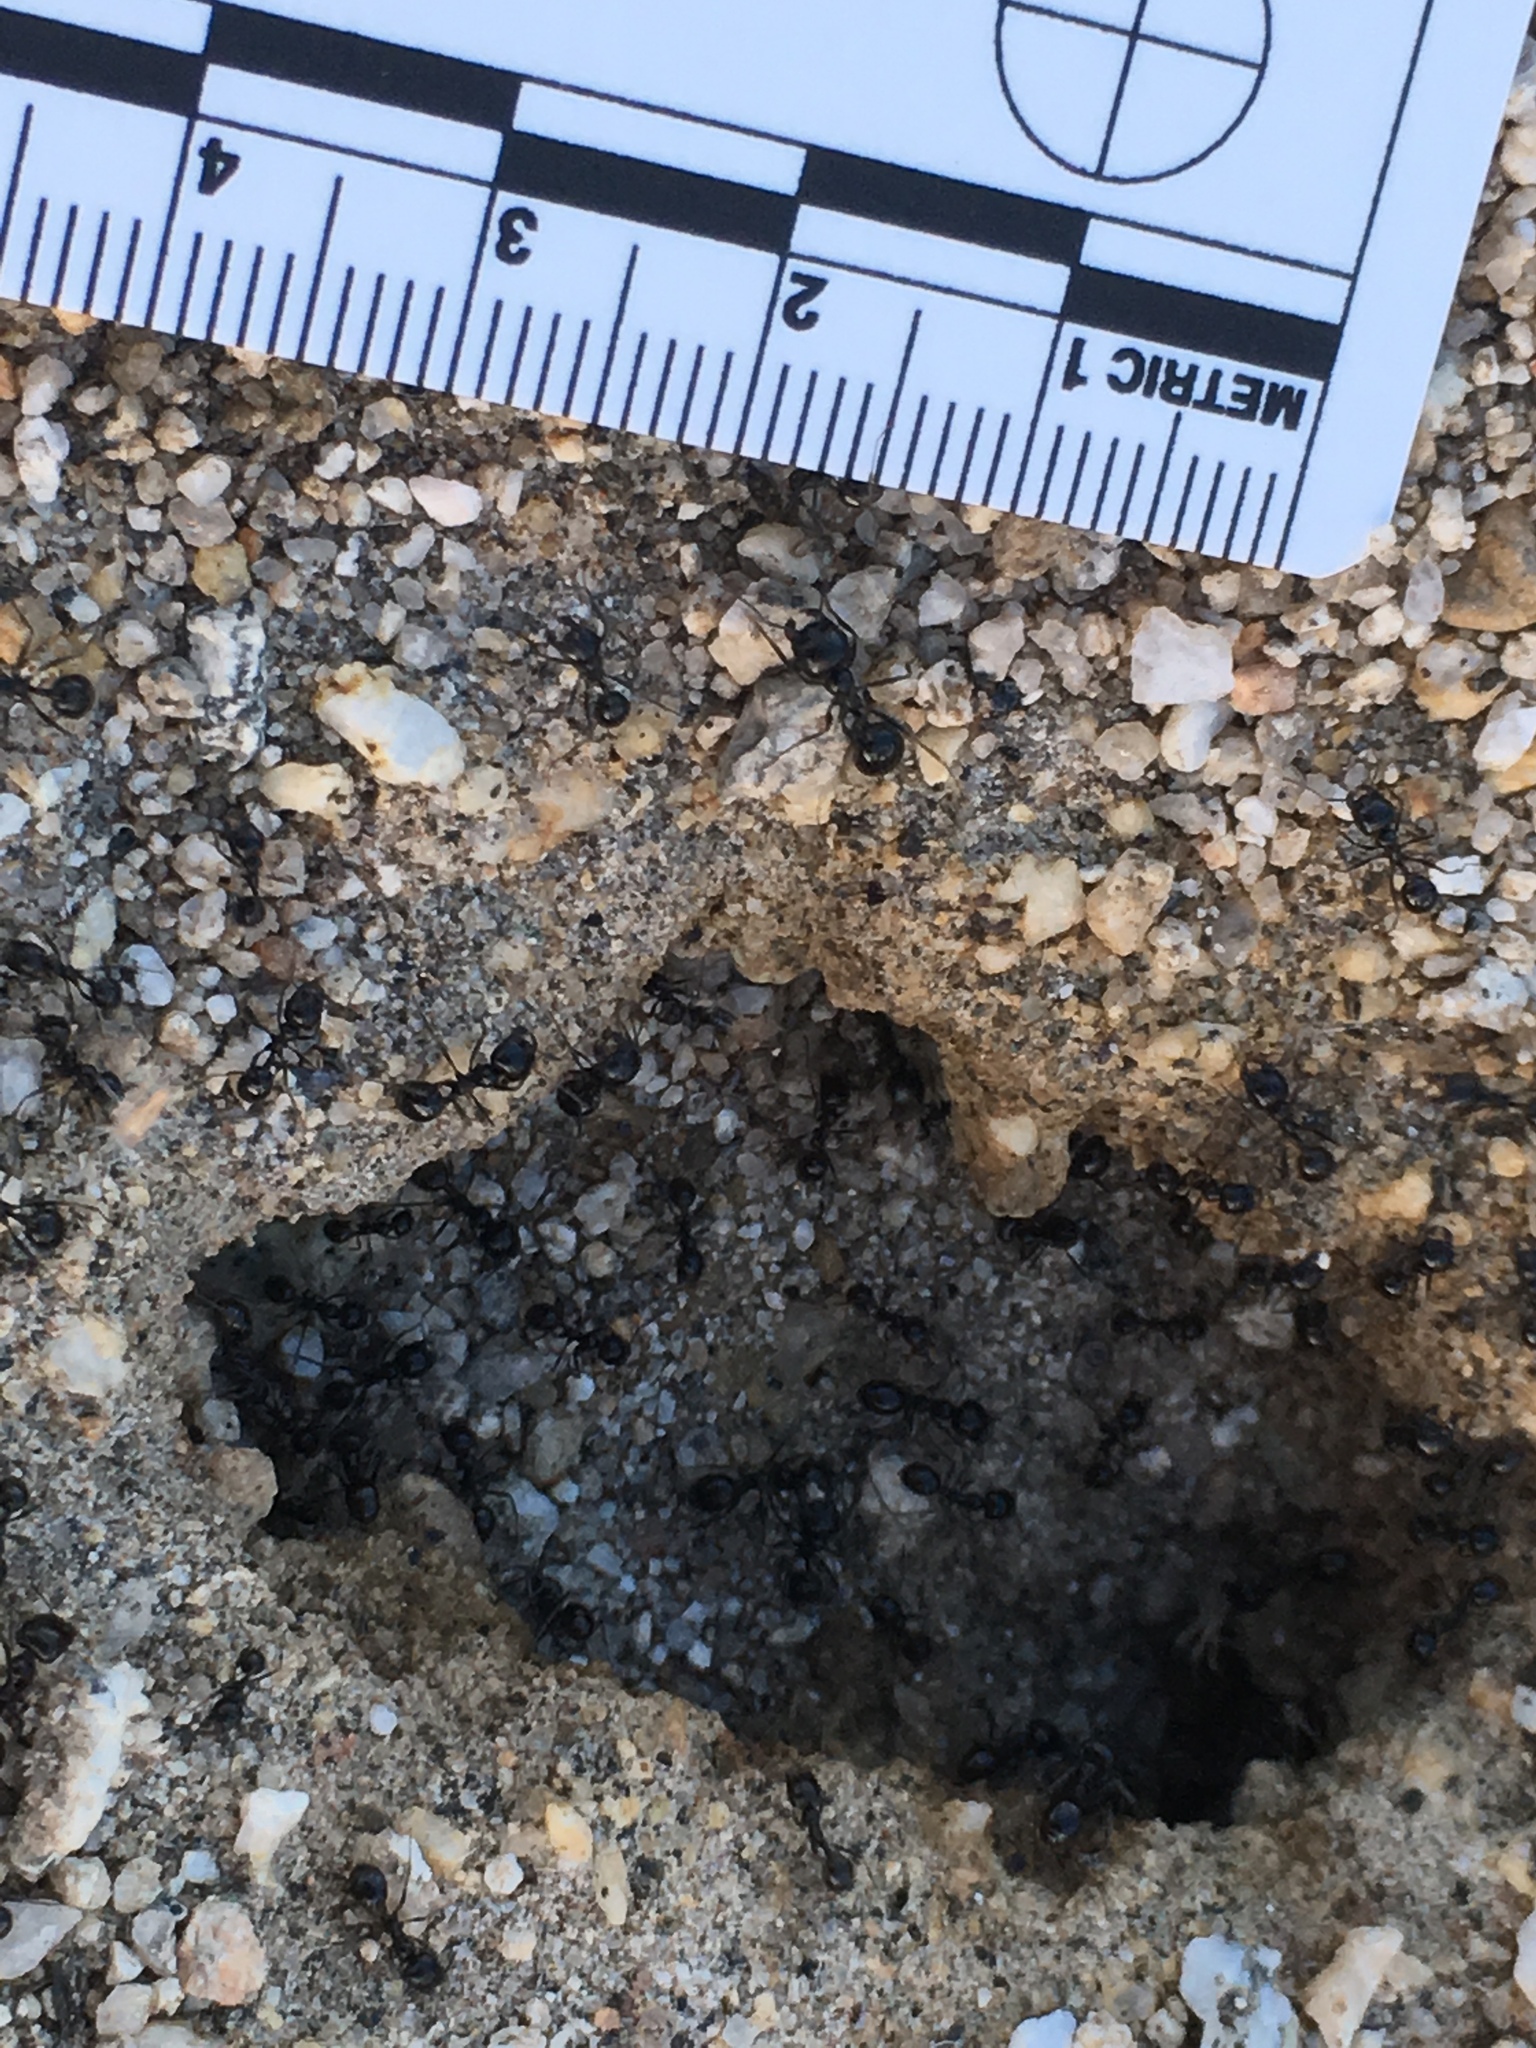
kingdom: Animalia
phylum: Arthropoda
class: Insecta
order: Hymenoptera
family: Formicidae
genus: Messor
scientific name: Messor pergandei
